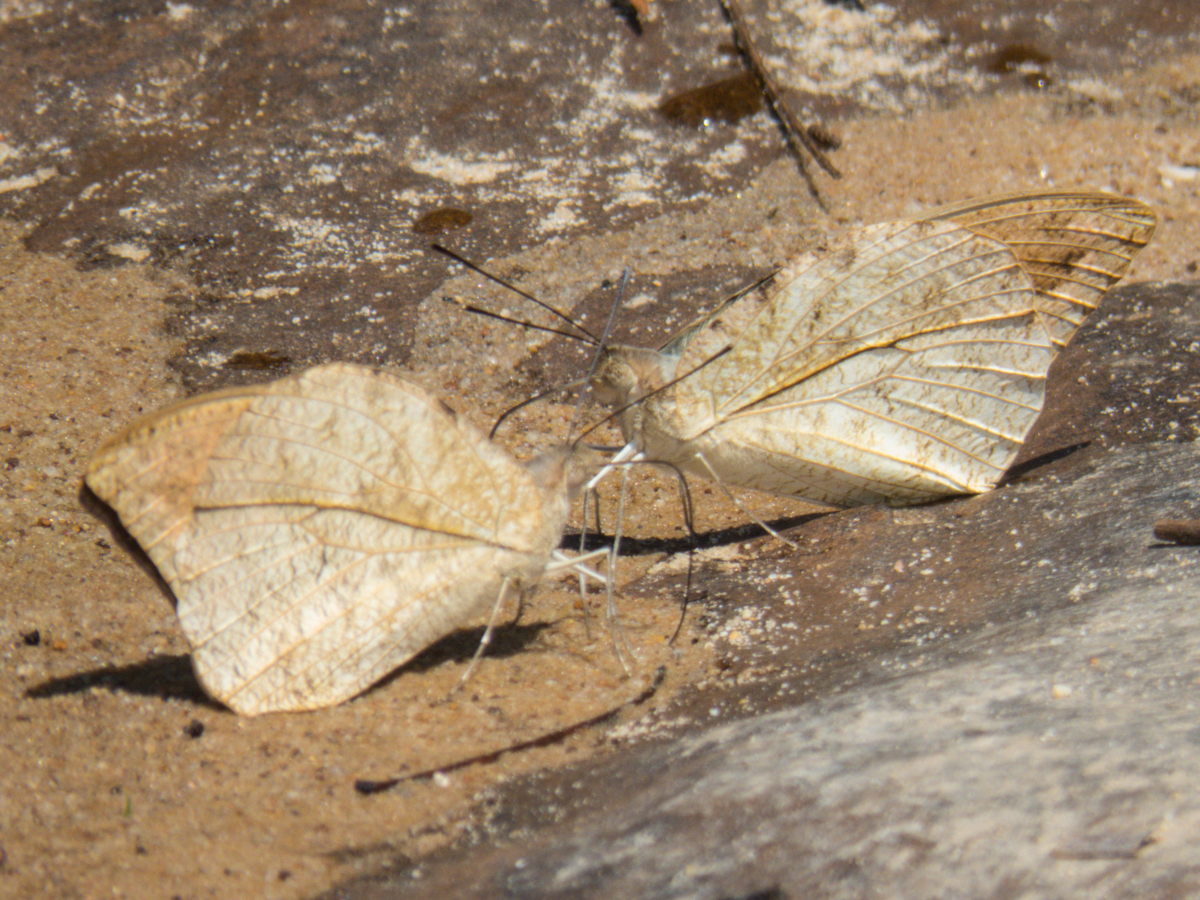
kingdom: Animalia
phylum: Arthropoda
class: Insecta
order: Lepidoptera
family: Pieridae
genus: Hebomoia
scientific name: Hebomoia glaucippe
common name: Great orange tip
